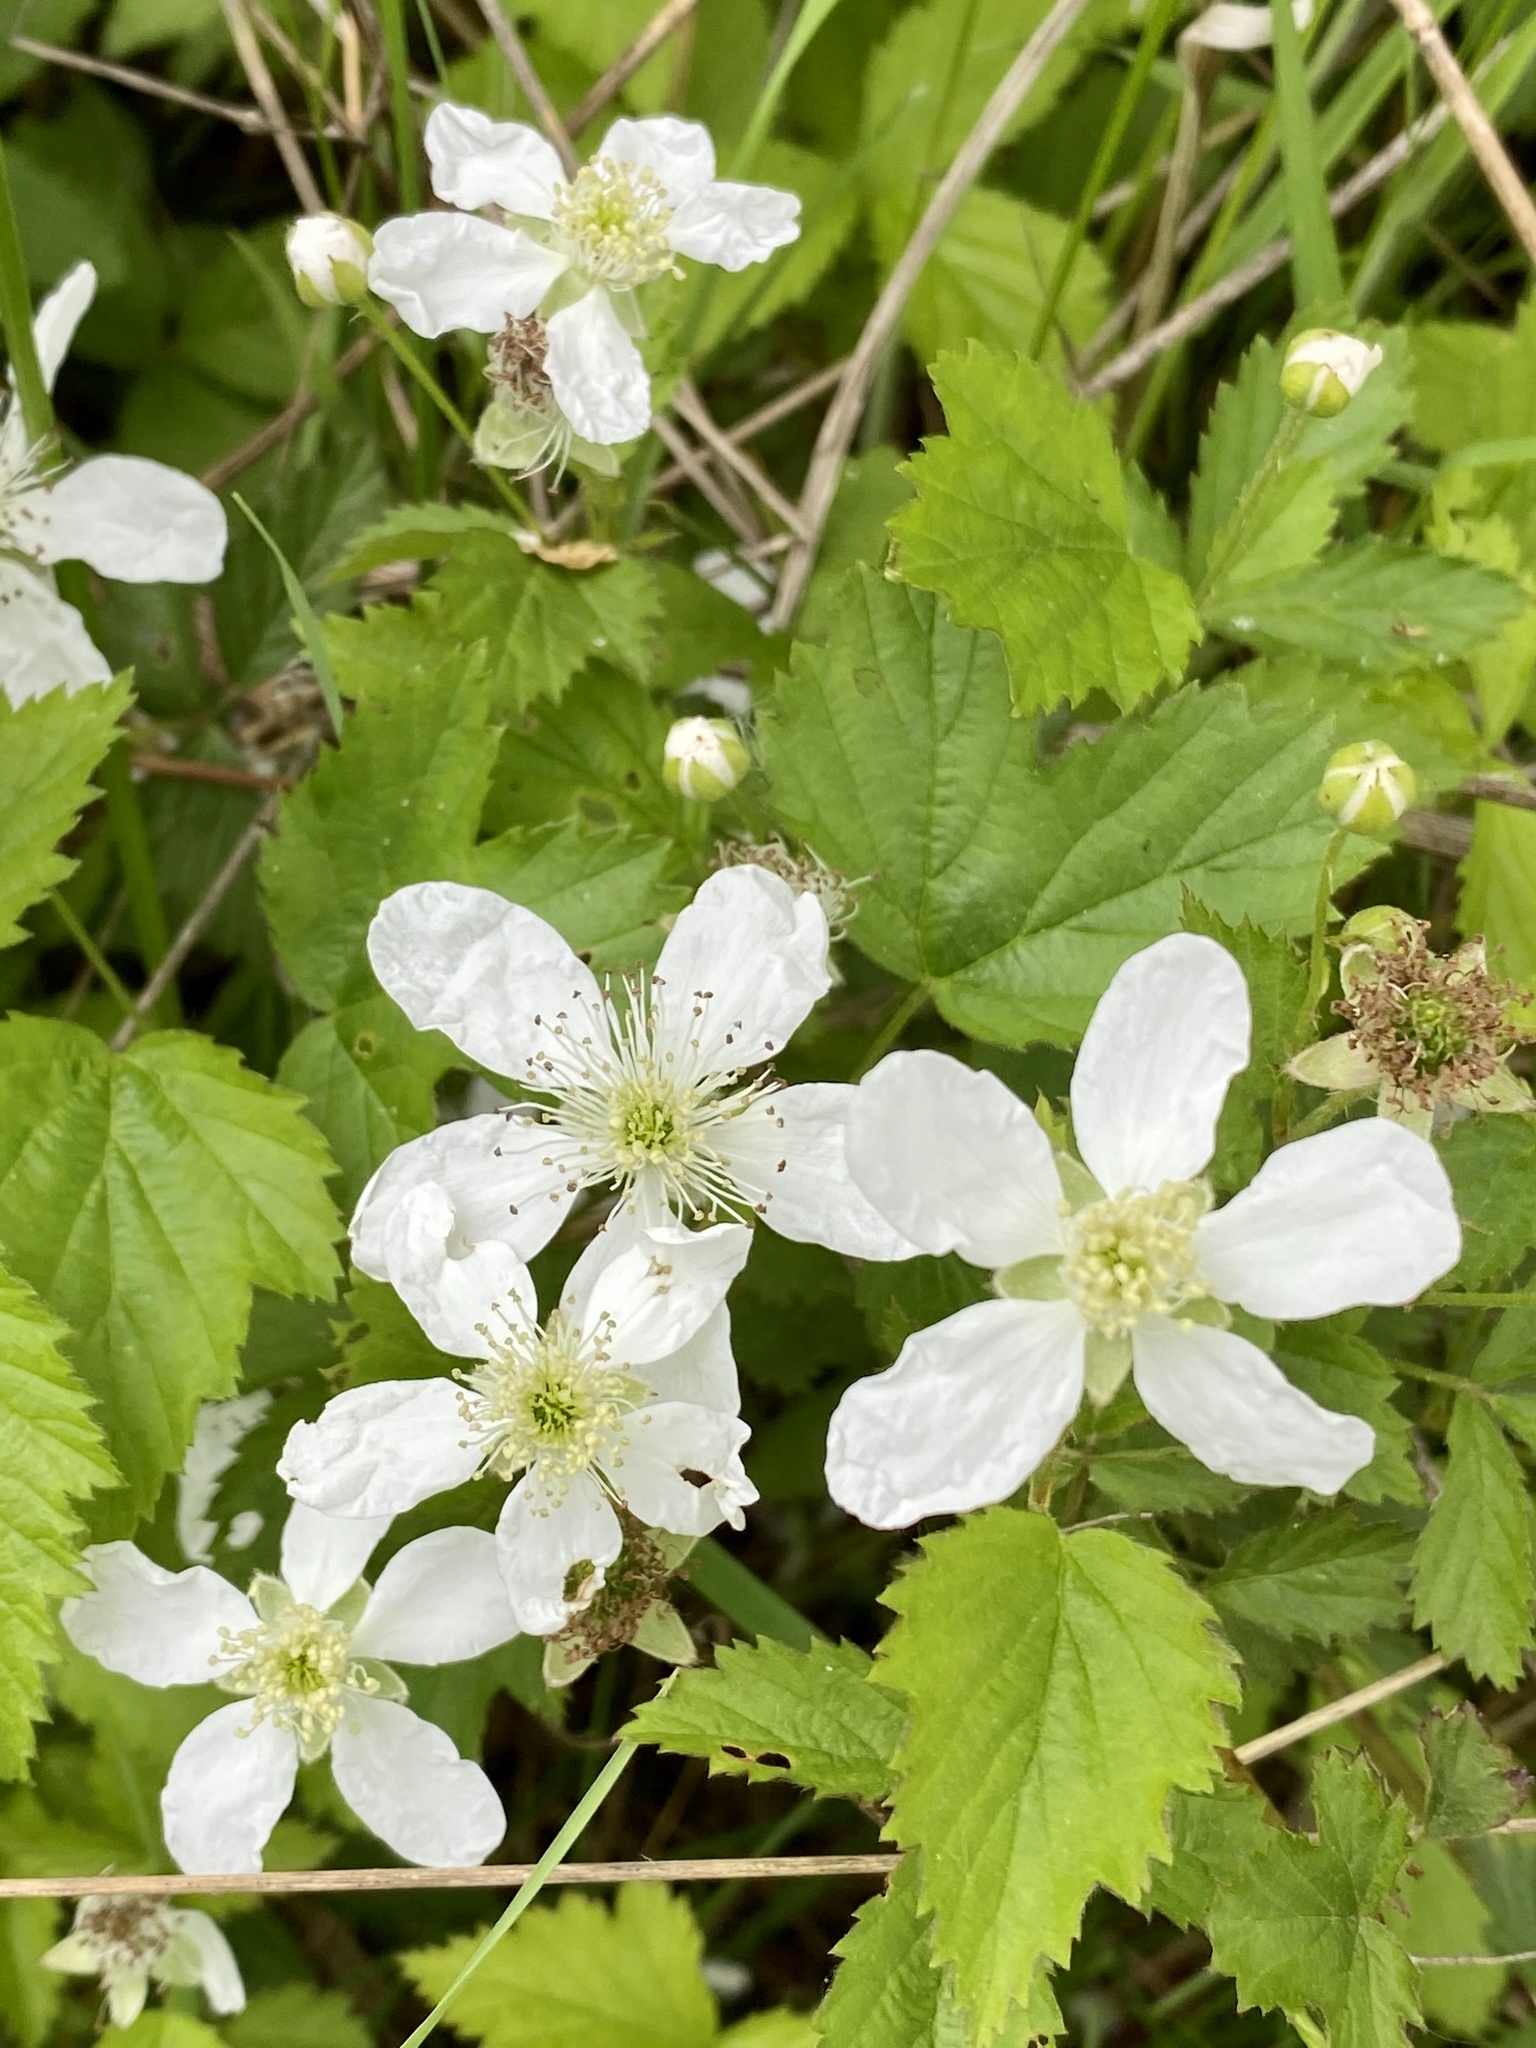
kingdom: Plantae
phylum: Tracheophyta
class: Magnoliopsida
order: Rosales
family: Rosaceae
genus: Rubus
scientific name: Rubus flagellaris
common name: American dewberry
